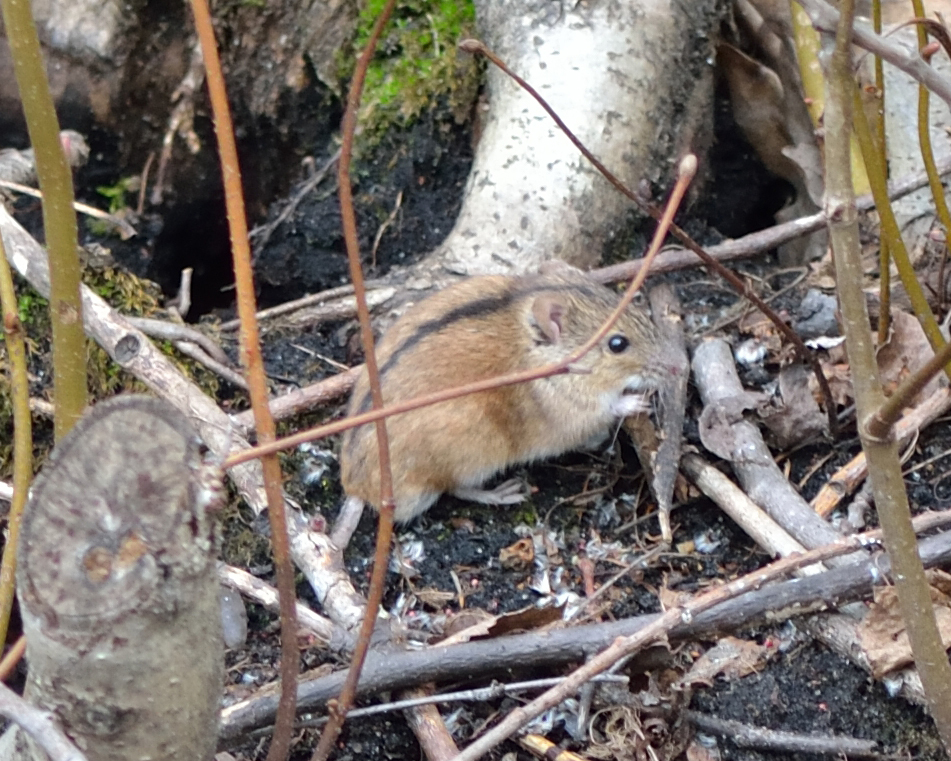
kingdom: Animalia
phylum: Chordata
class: Mammalia
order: Rodentia
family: Muridae
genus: Apodemus
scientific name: Apodemus agrarius
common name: Striped field mouse
